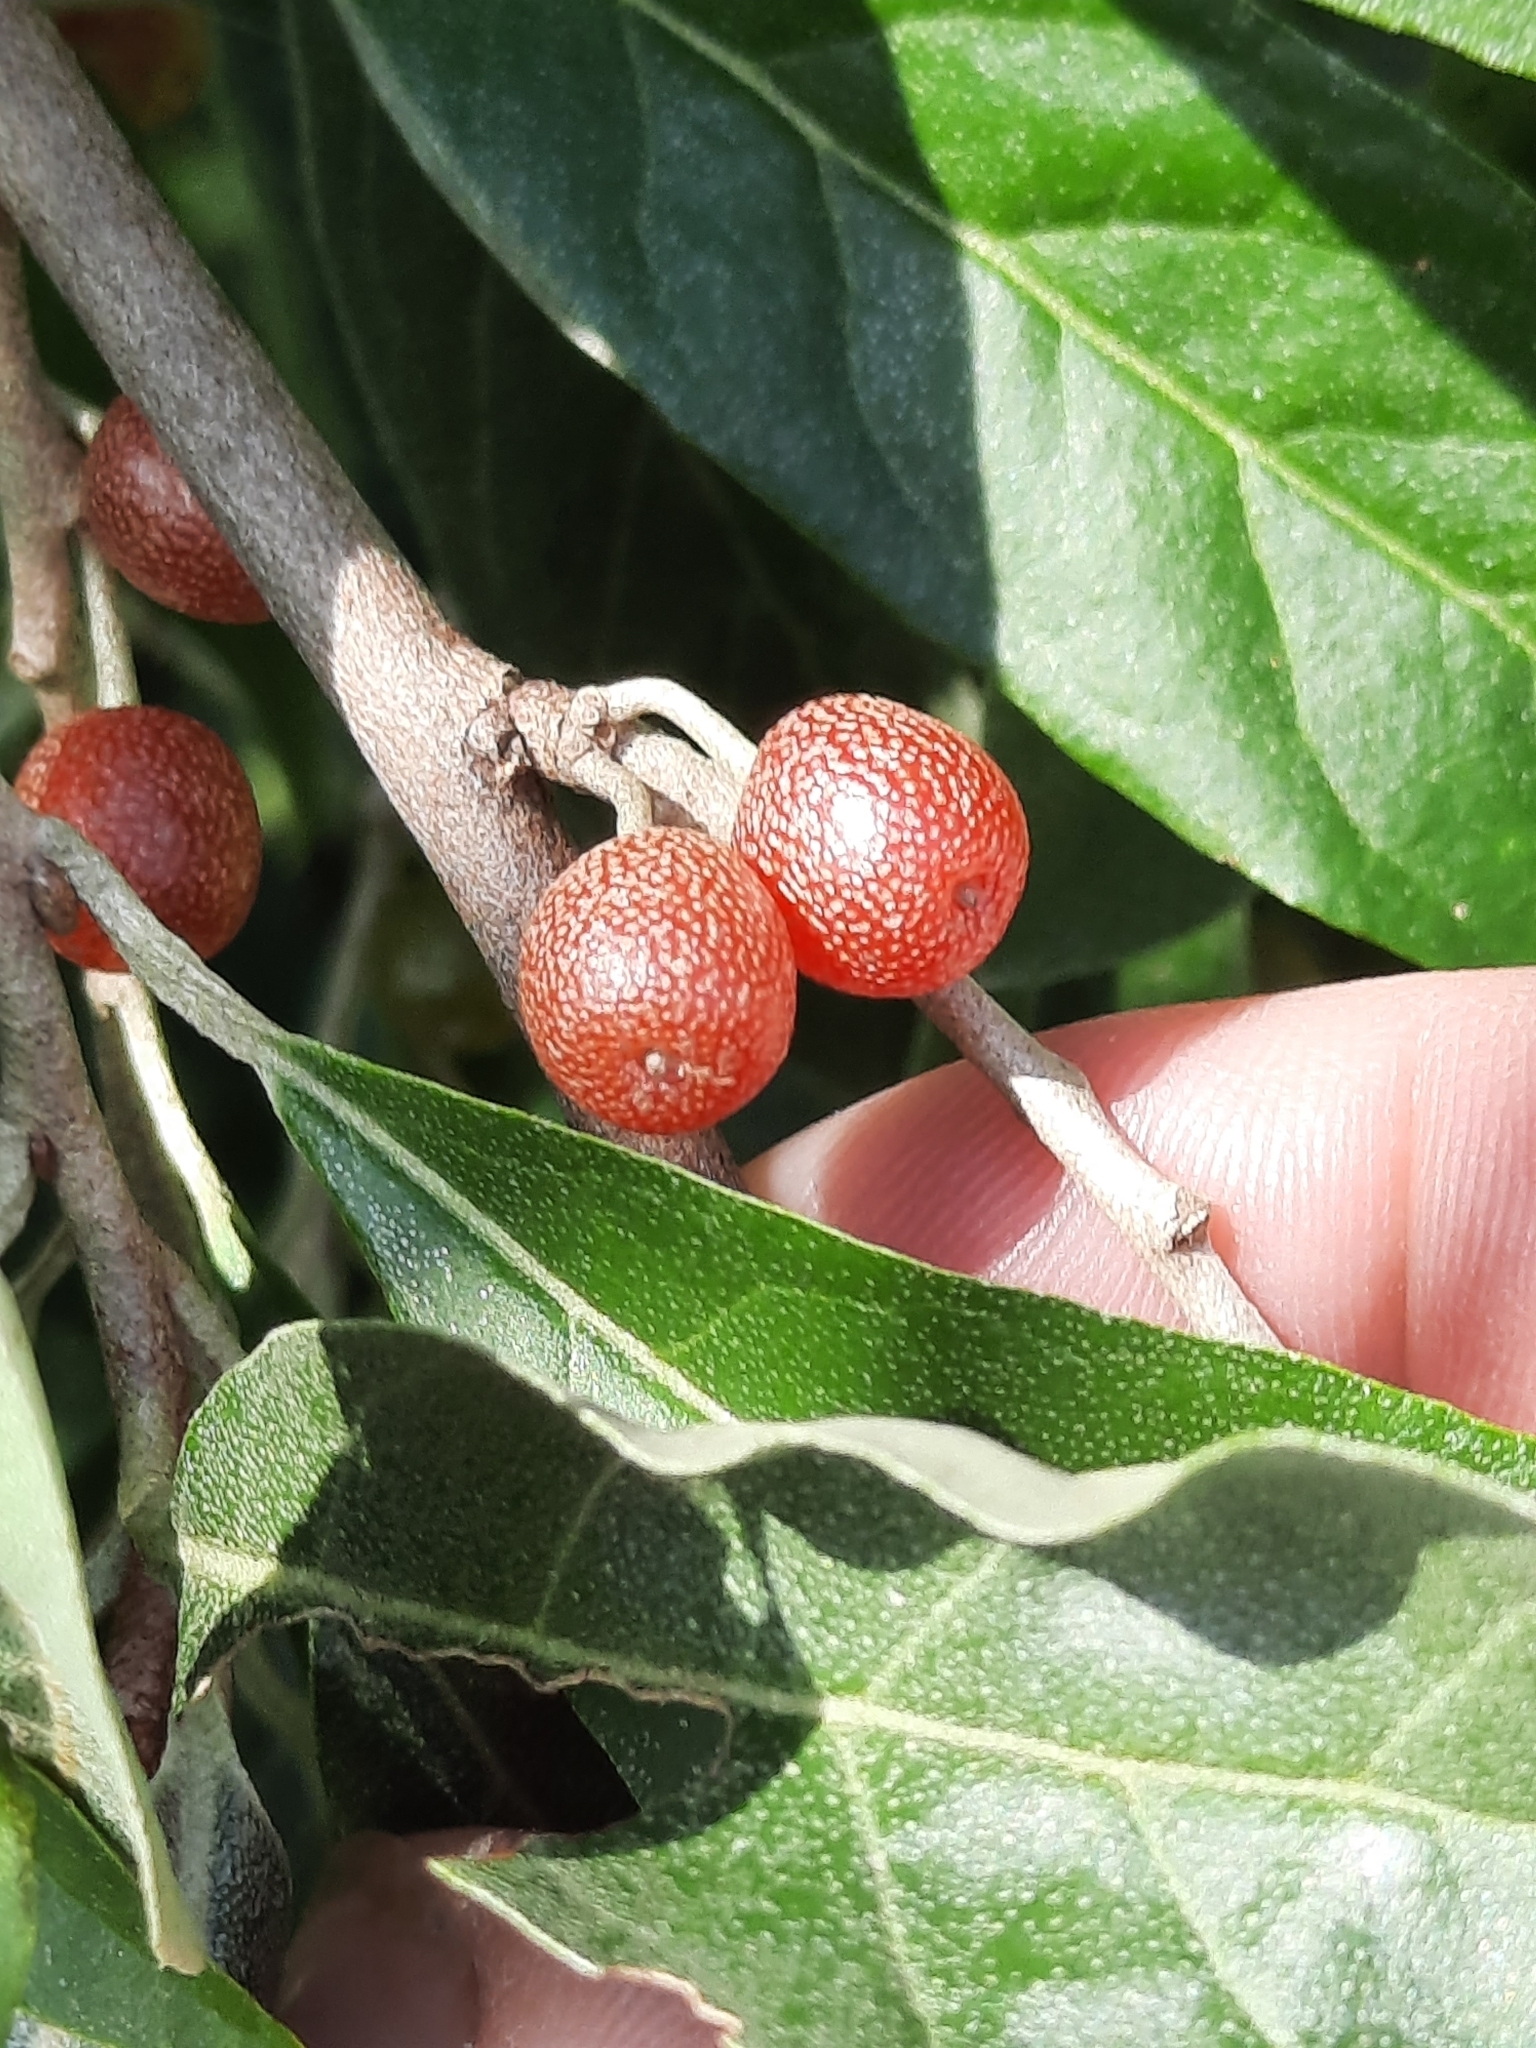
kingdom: Plantae
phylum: Tracheophyta
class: Magnoliopsida
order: Rosales
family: Elaeagnaceae
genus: Elaeagnus
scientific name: Elaeagnus umbellata
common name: Autumn olive
